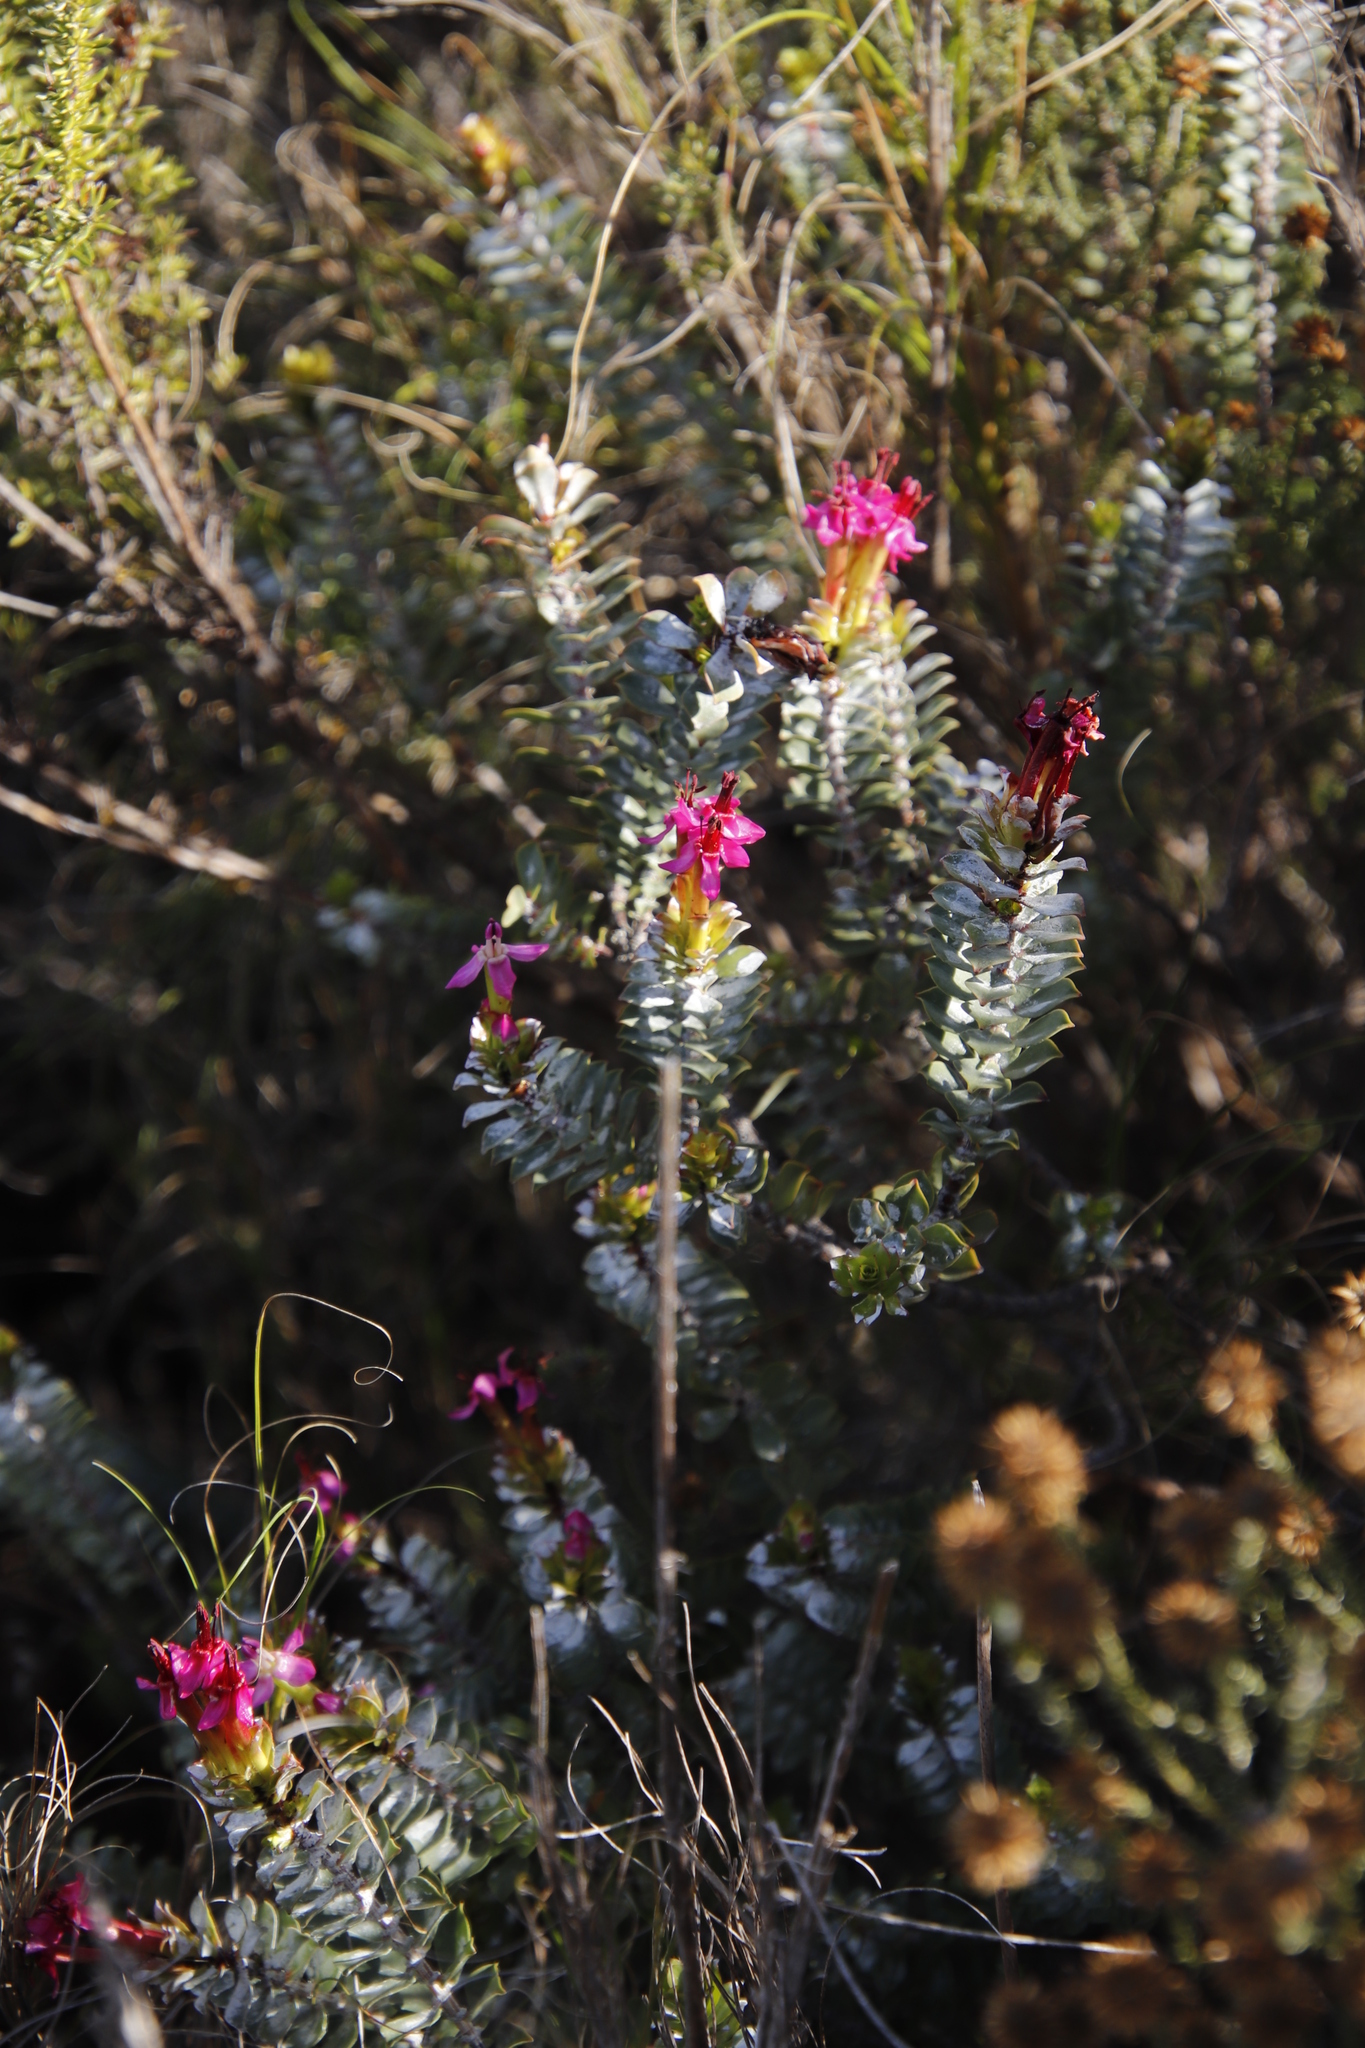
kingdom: Plantae
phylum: Tracheophyta
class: Magnoliopsida
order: Myrtales
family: Penaeaceae
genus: Saltera
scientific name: Saltera sarcocolla
